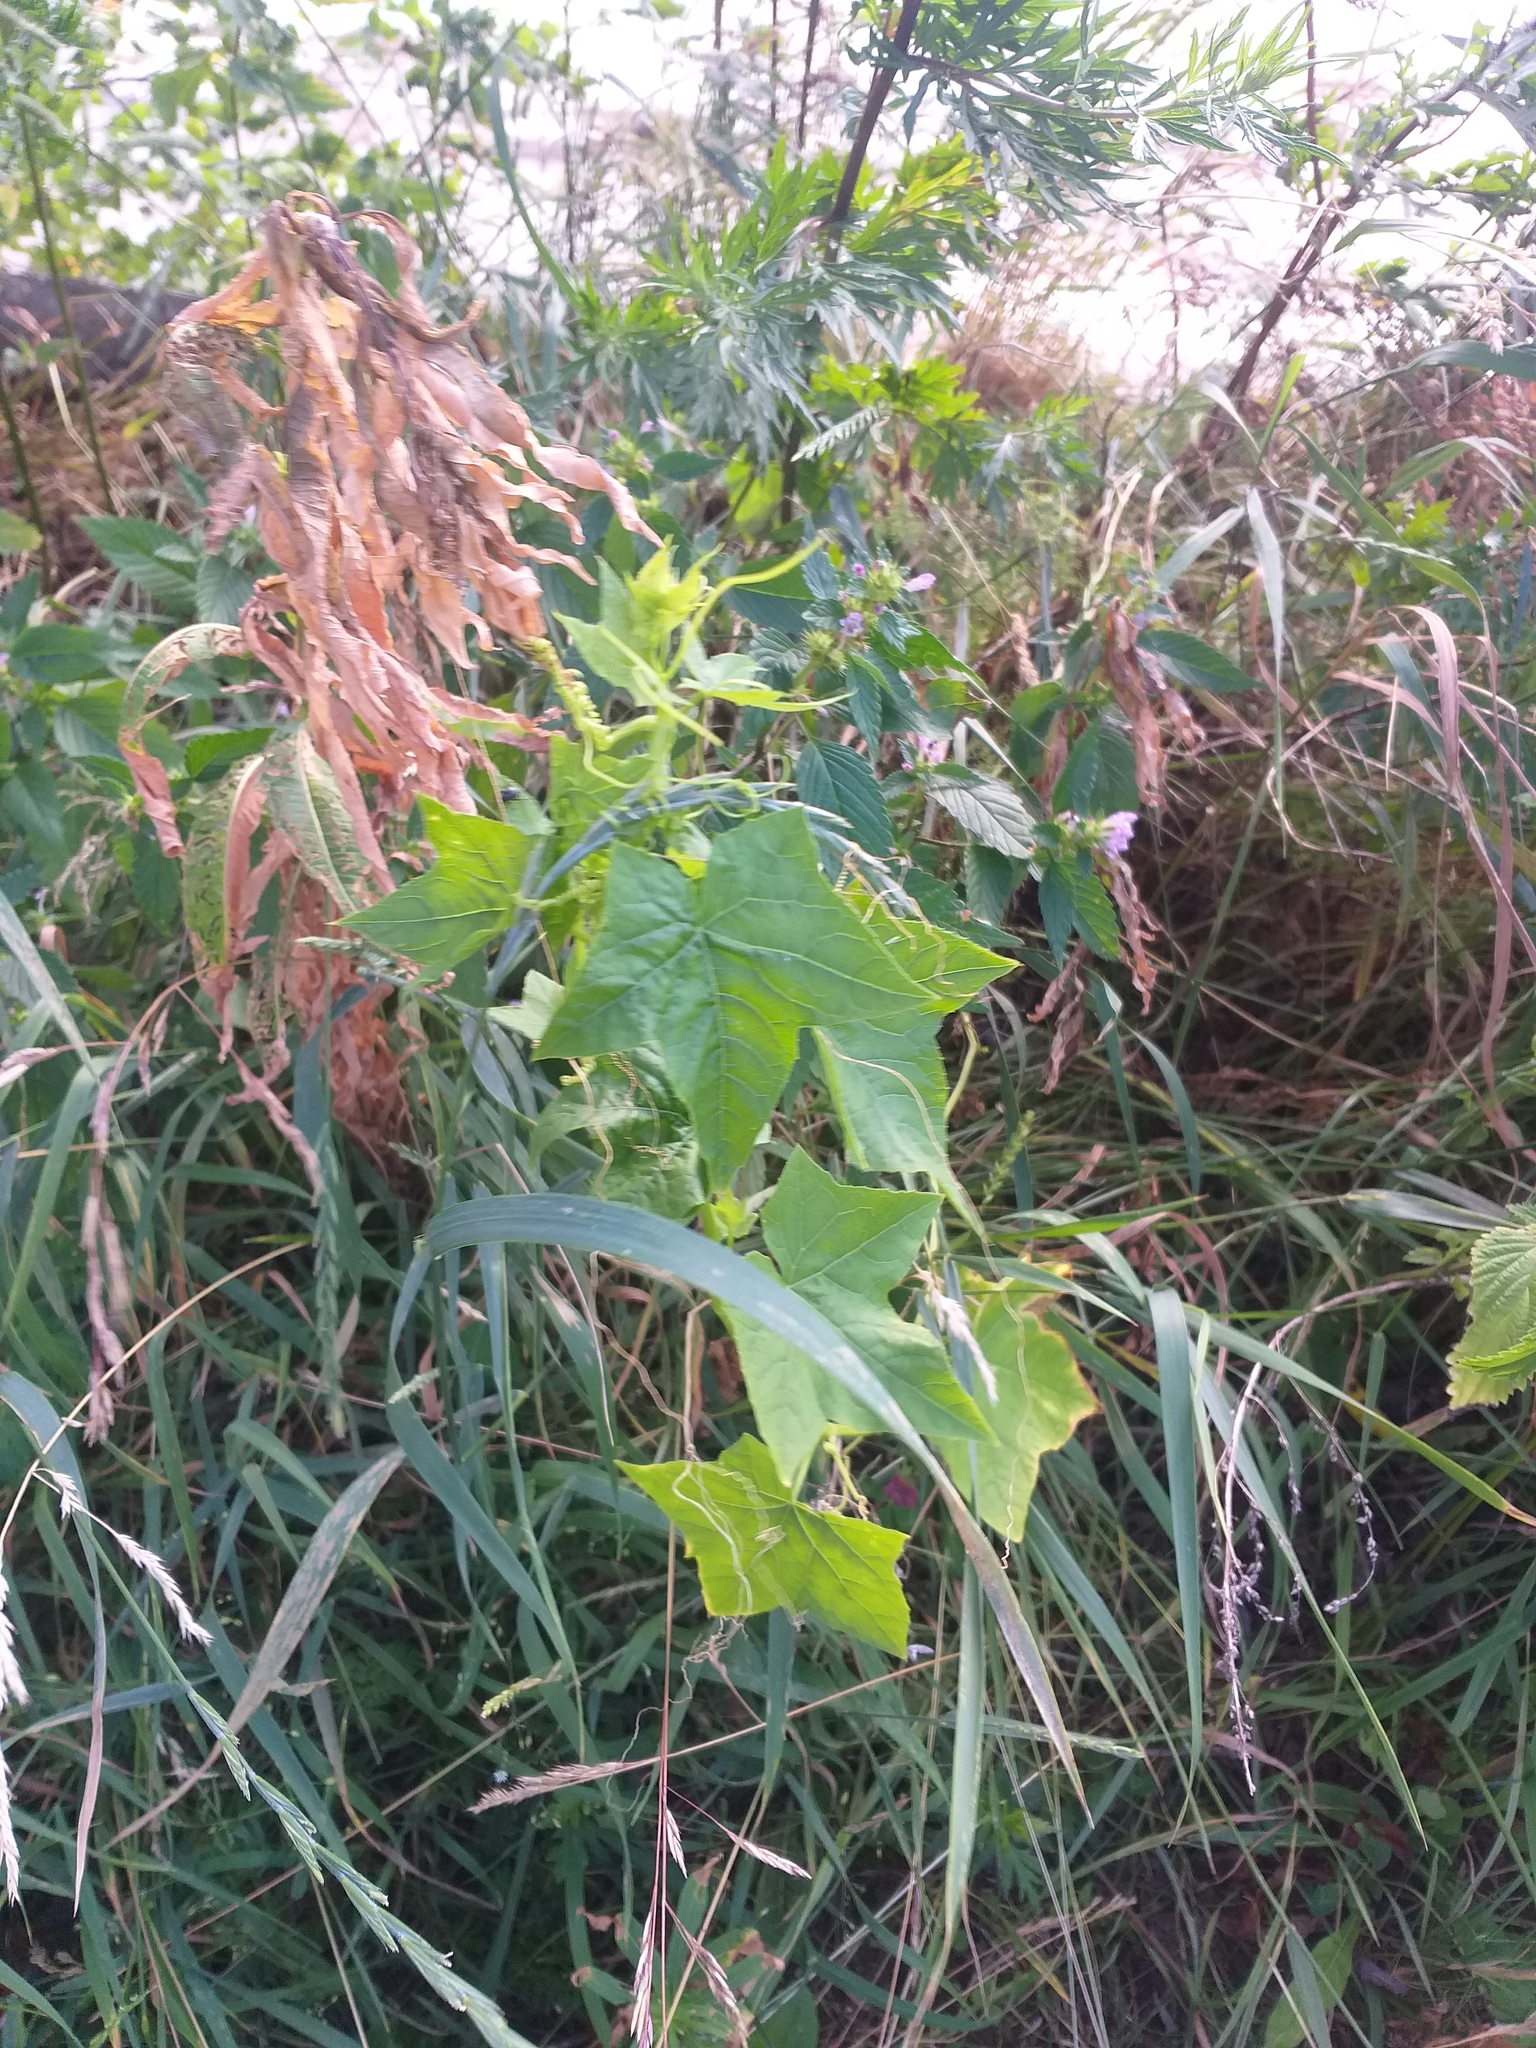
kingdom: Plantae
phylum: Tracheophyta
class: Magnoliopsida
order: Cucurbitales
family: Cucurbitaceae
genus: Echinocystis
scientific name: Echinocystis lobata
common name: Wild cucumber
